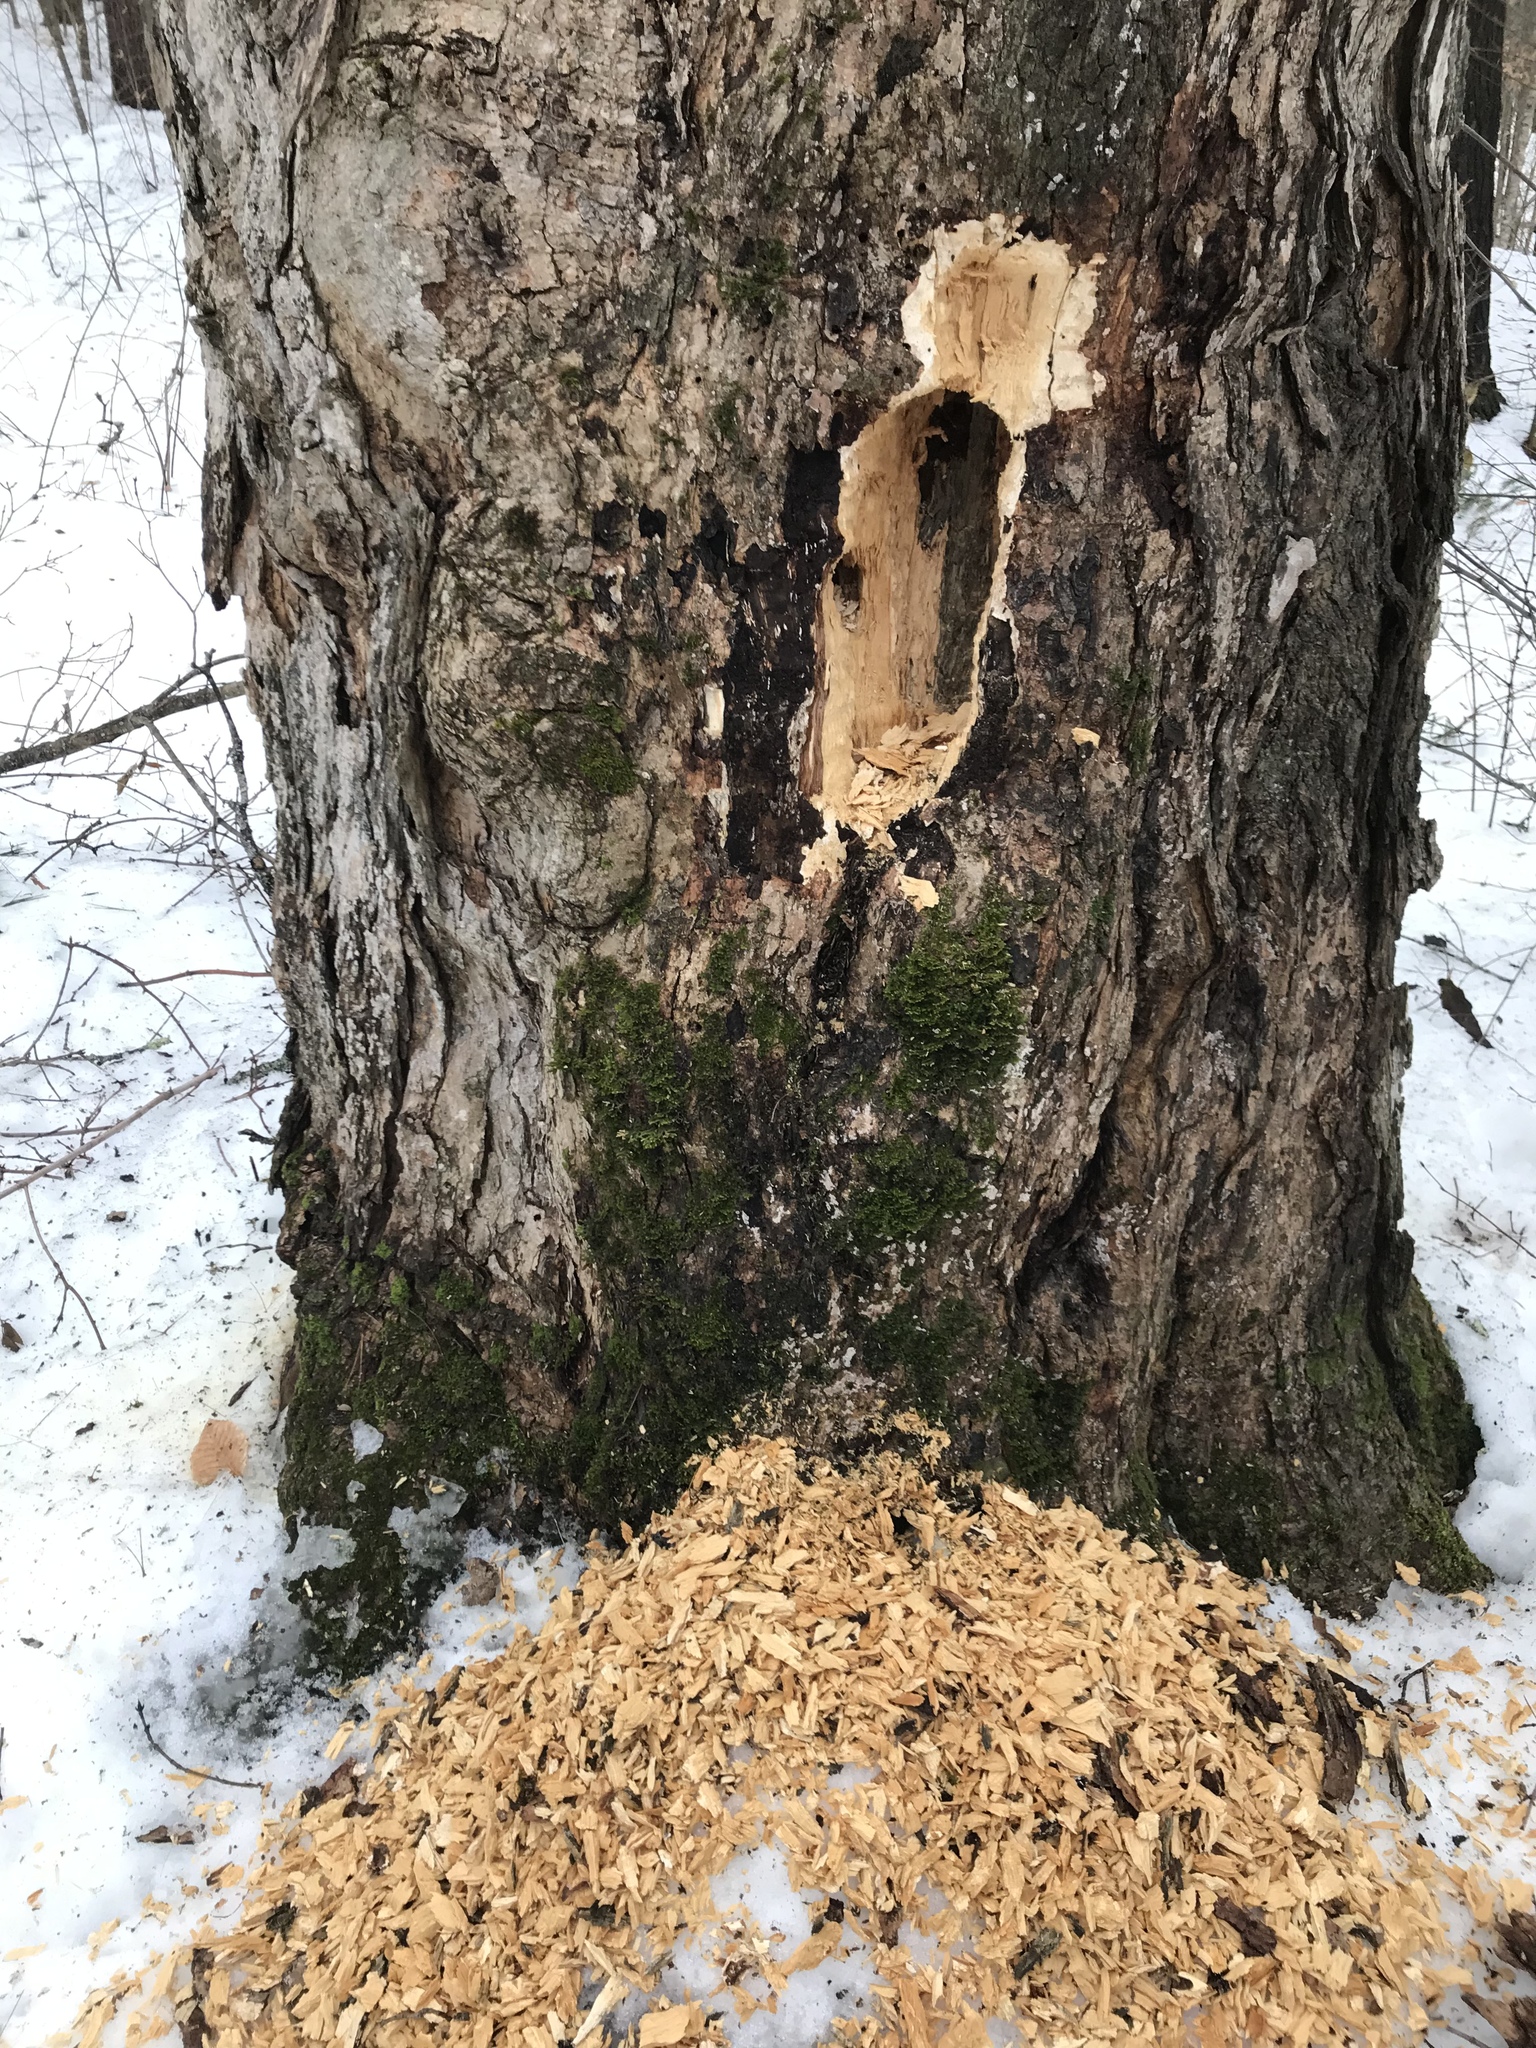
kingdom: Animalia
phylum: Chordata
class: Aves
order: Piciformes
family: Picidae
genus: Dryocopus
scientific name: Dryocopus pileatus
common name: Pileated woodpecker
